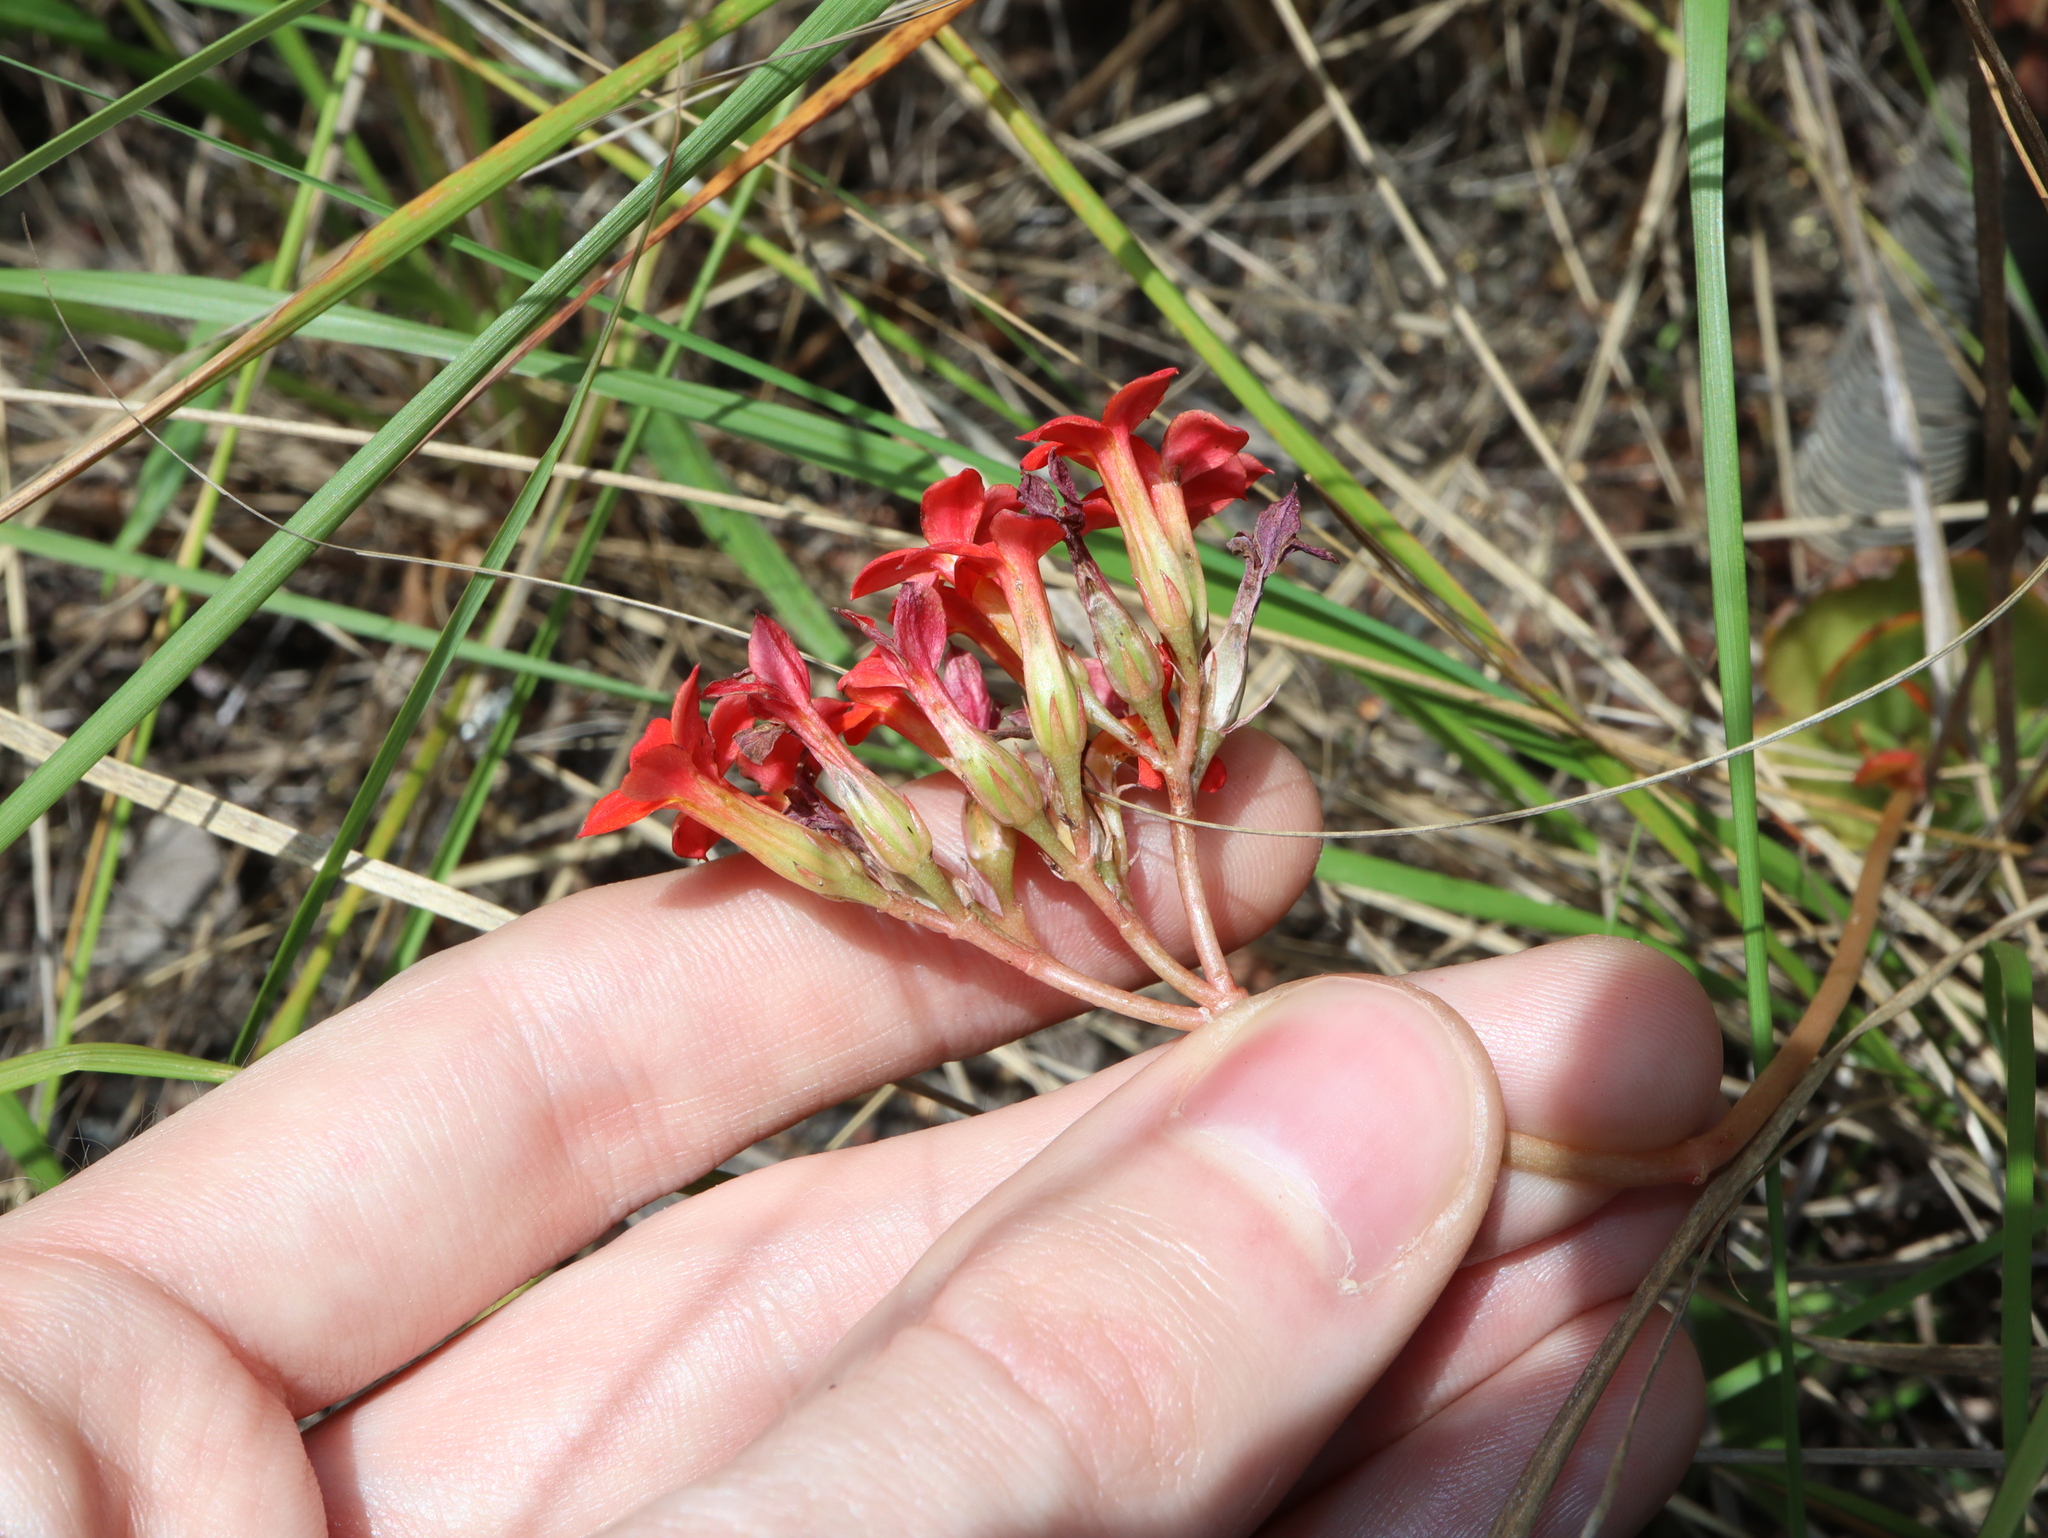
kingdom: Plantae
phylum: Tracheophyta
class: Magnoliopsida
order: Saxifragales
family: Crassulaceae
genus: Kalanchoe
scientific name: Kalanchoe blossfeldiana
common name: Flaming katy
